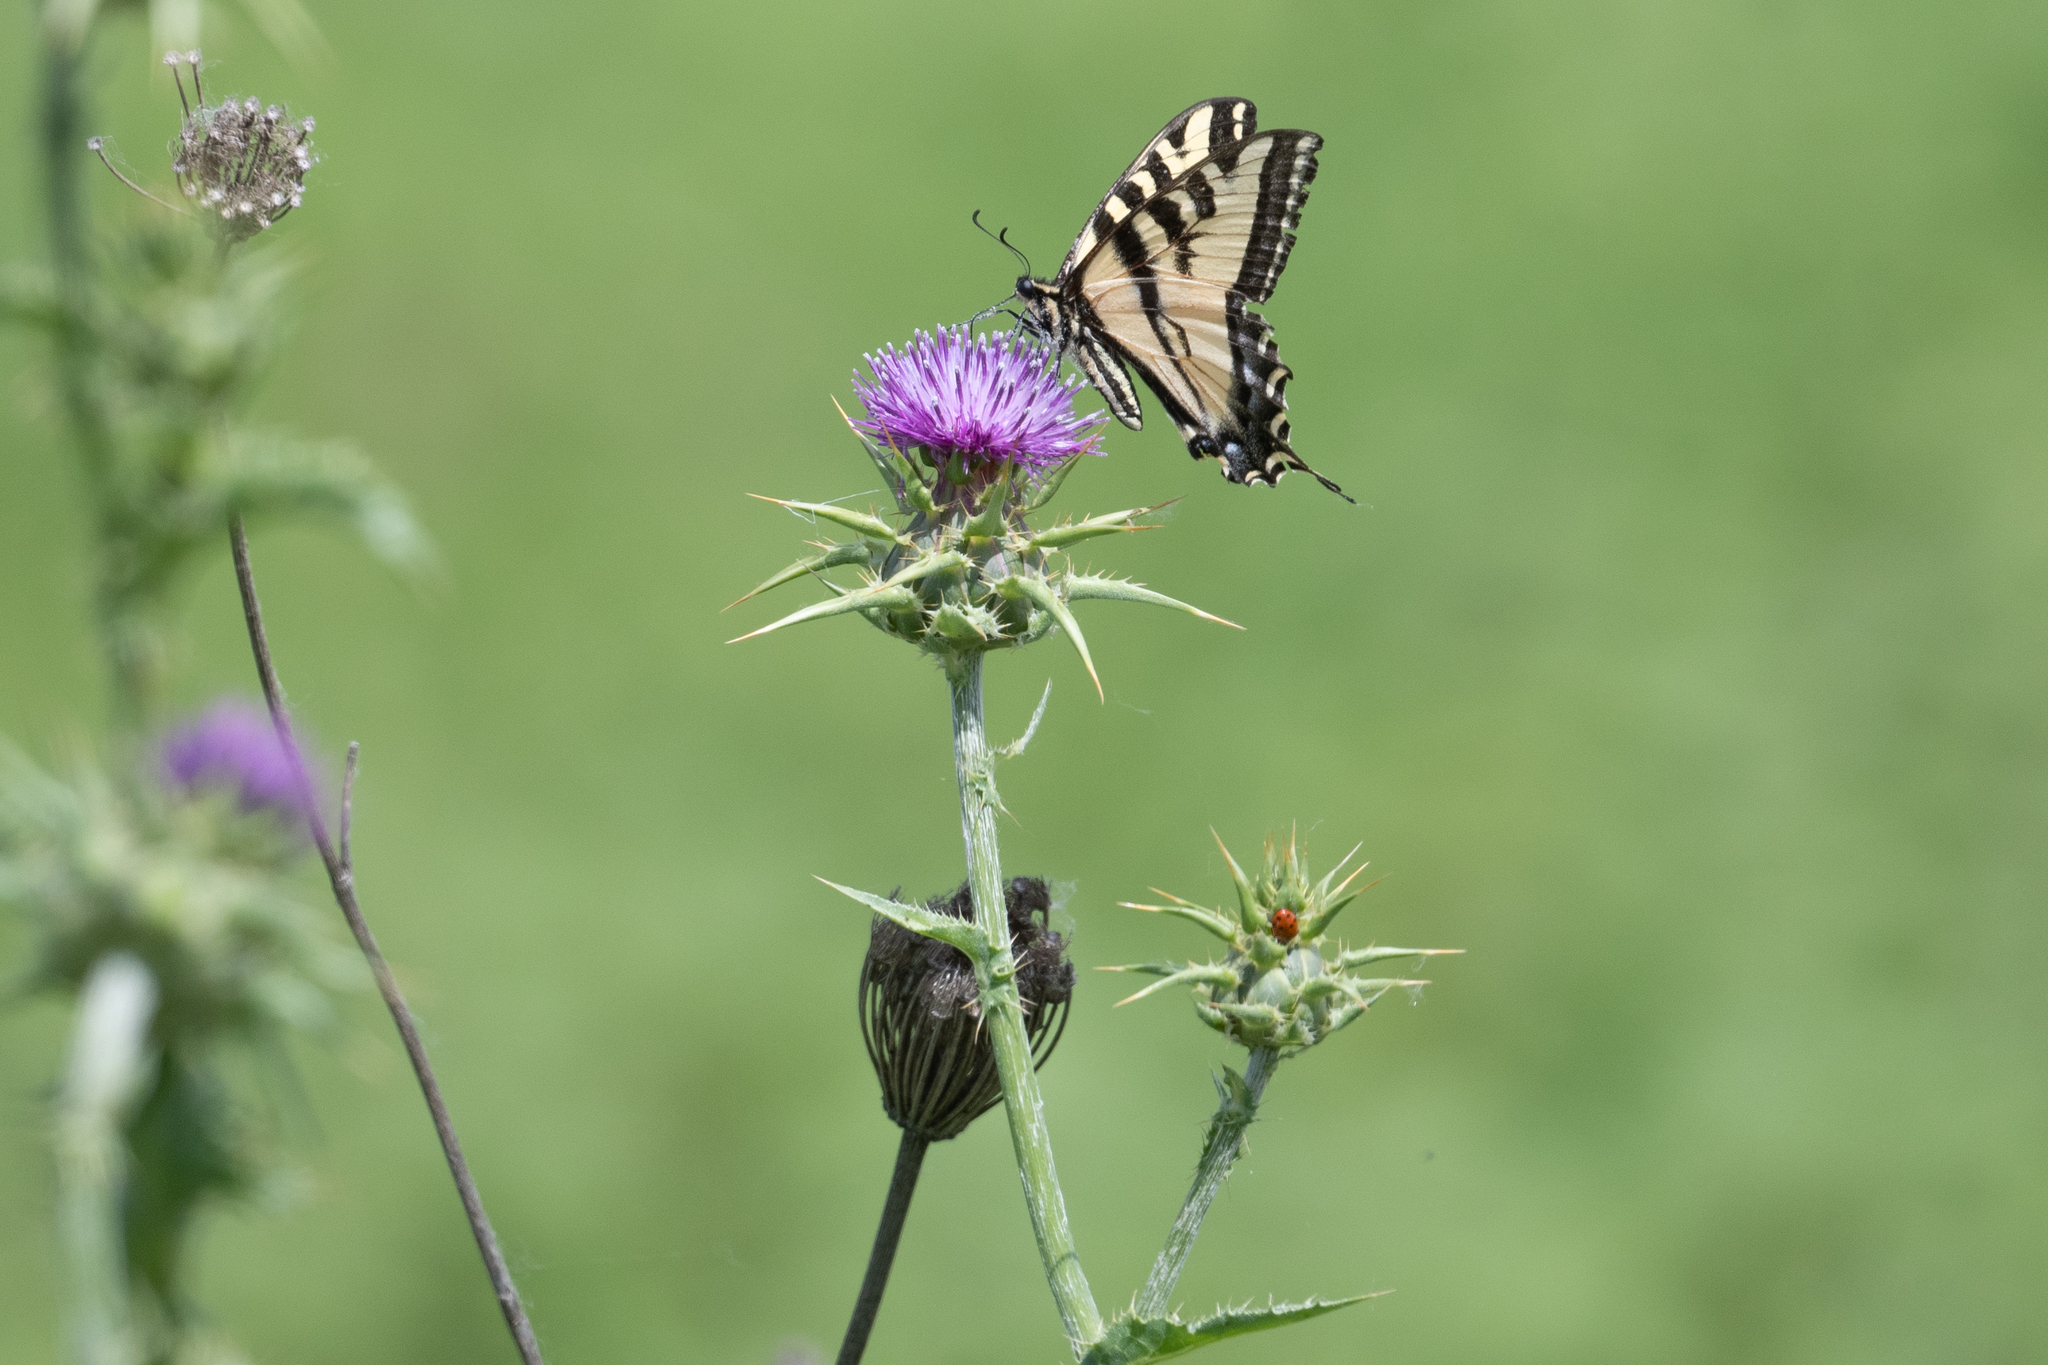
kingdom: Animalia
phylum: Arthropoda
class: Insecta
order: Lepidoptera
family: Papilionidae
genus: Papilio
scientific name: Papilio rutulus
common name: Western tiger swallowtail
